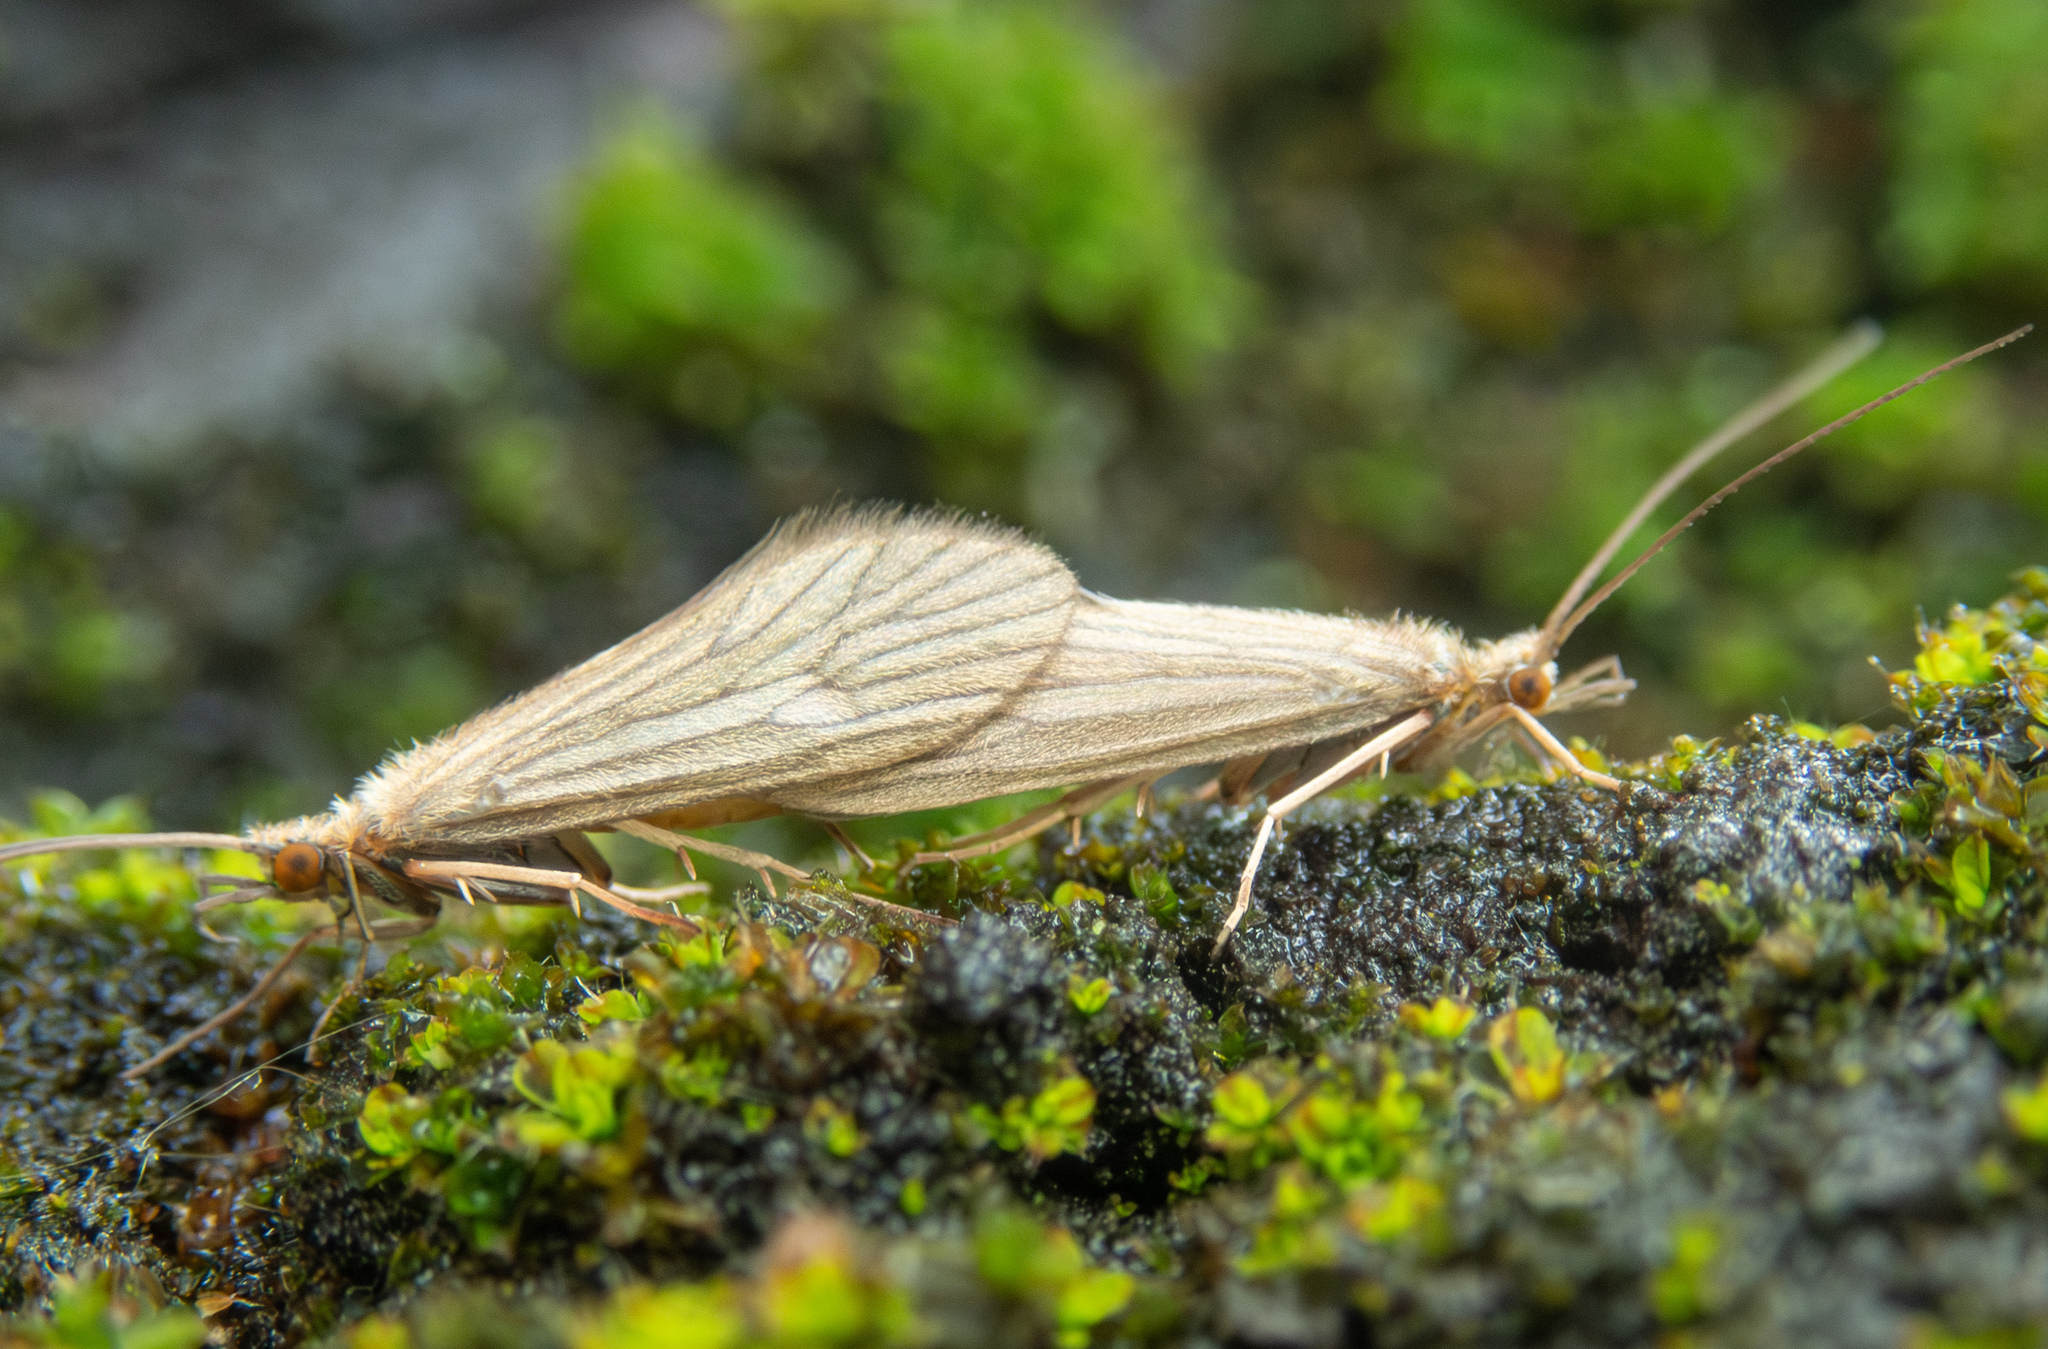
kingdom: Animalia
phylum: Arthropoda
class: Insecta
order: Trichoptera
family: Psychomyiidae
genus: Tinodes
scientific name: Tinodes waeneri
